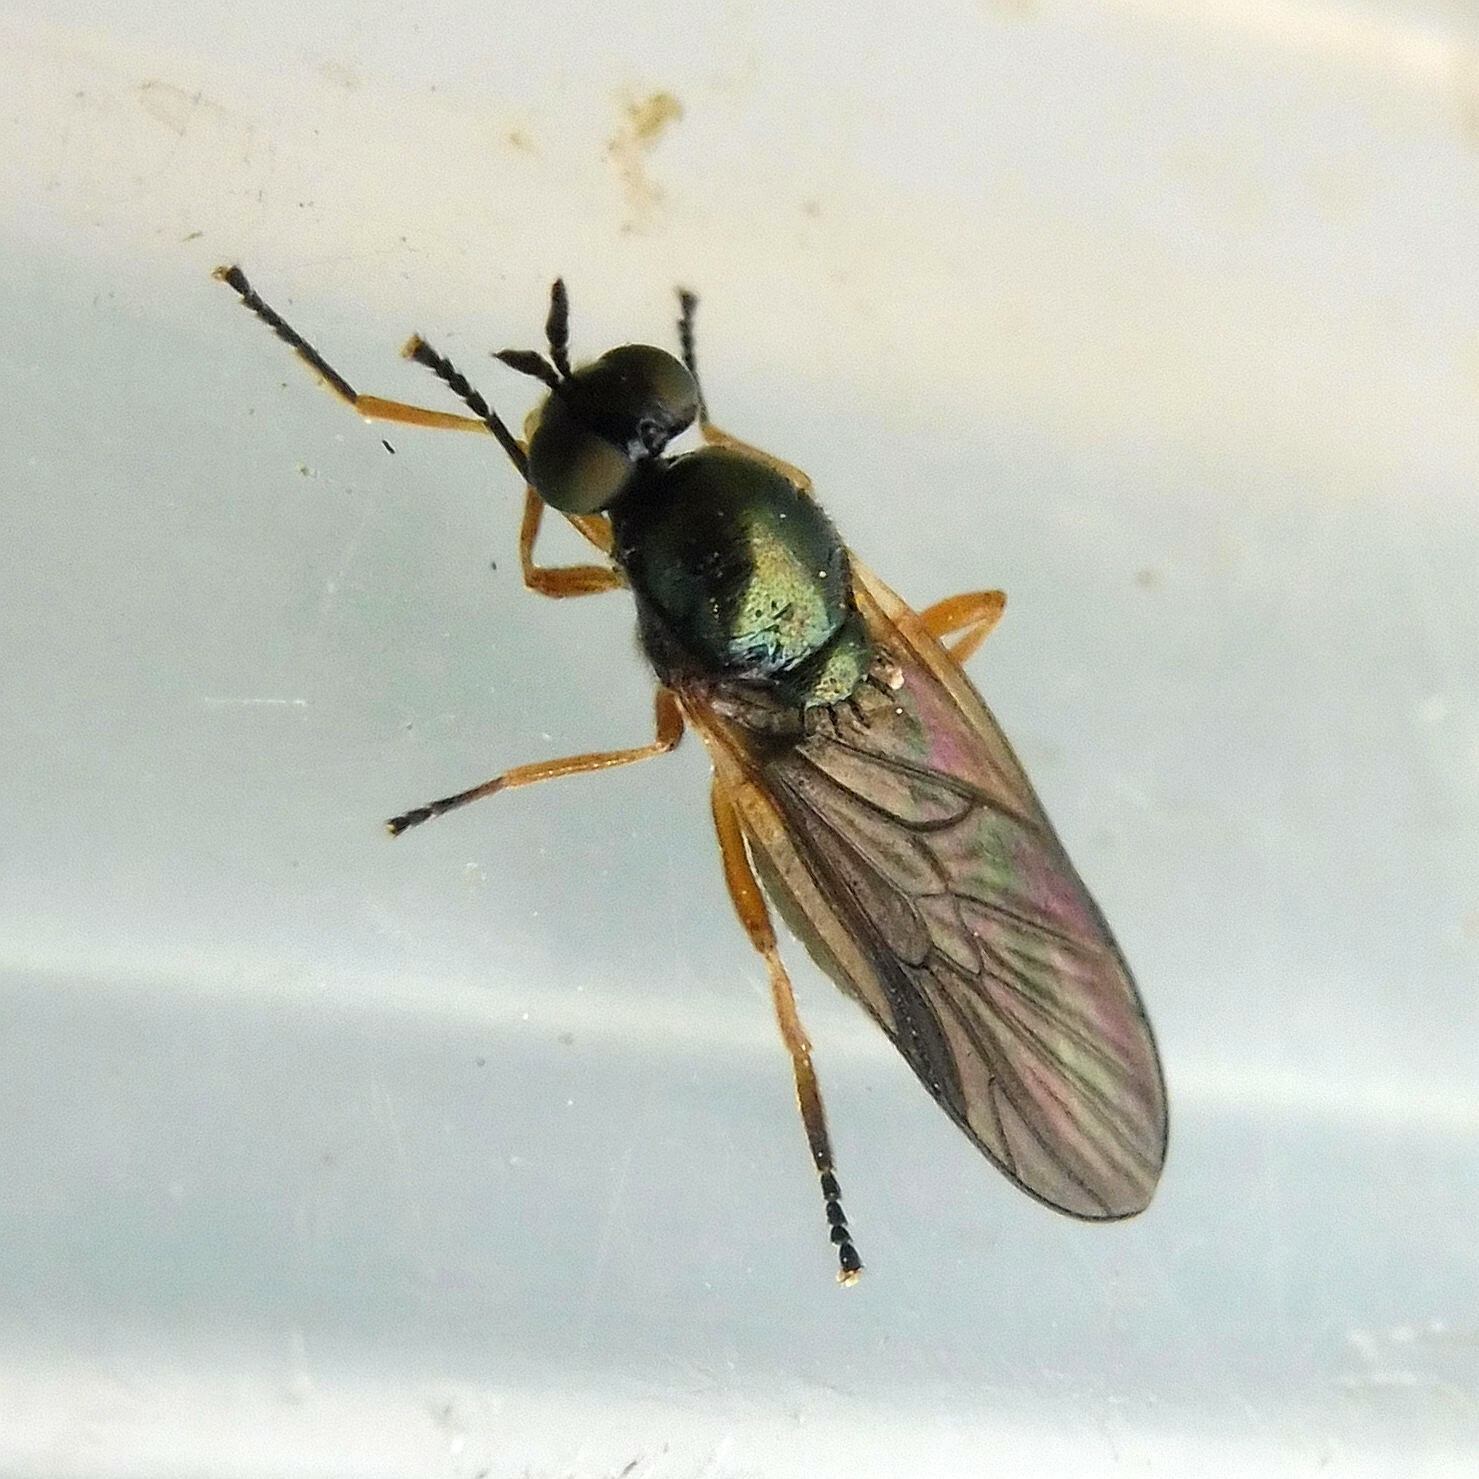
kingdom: Animalia
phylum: Arthropoda
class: Insecta
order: Diptera
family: Stratiomyidae
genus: Beris
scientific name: Beris chalybata
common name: Murky-legged black legionnaire
